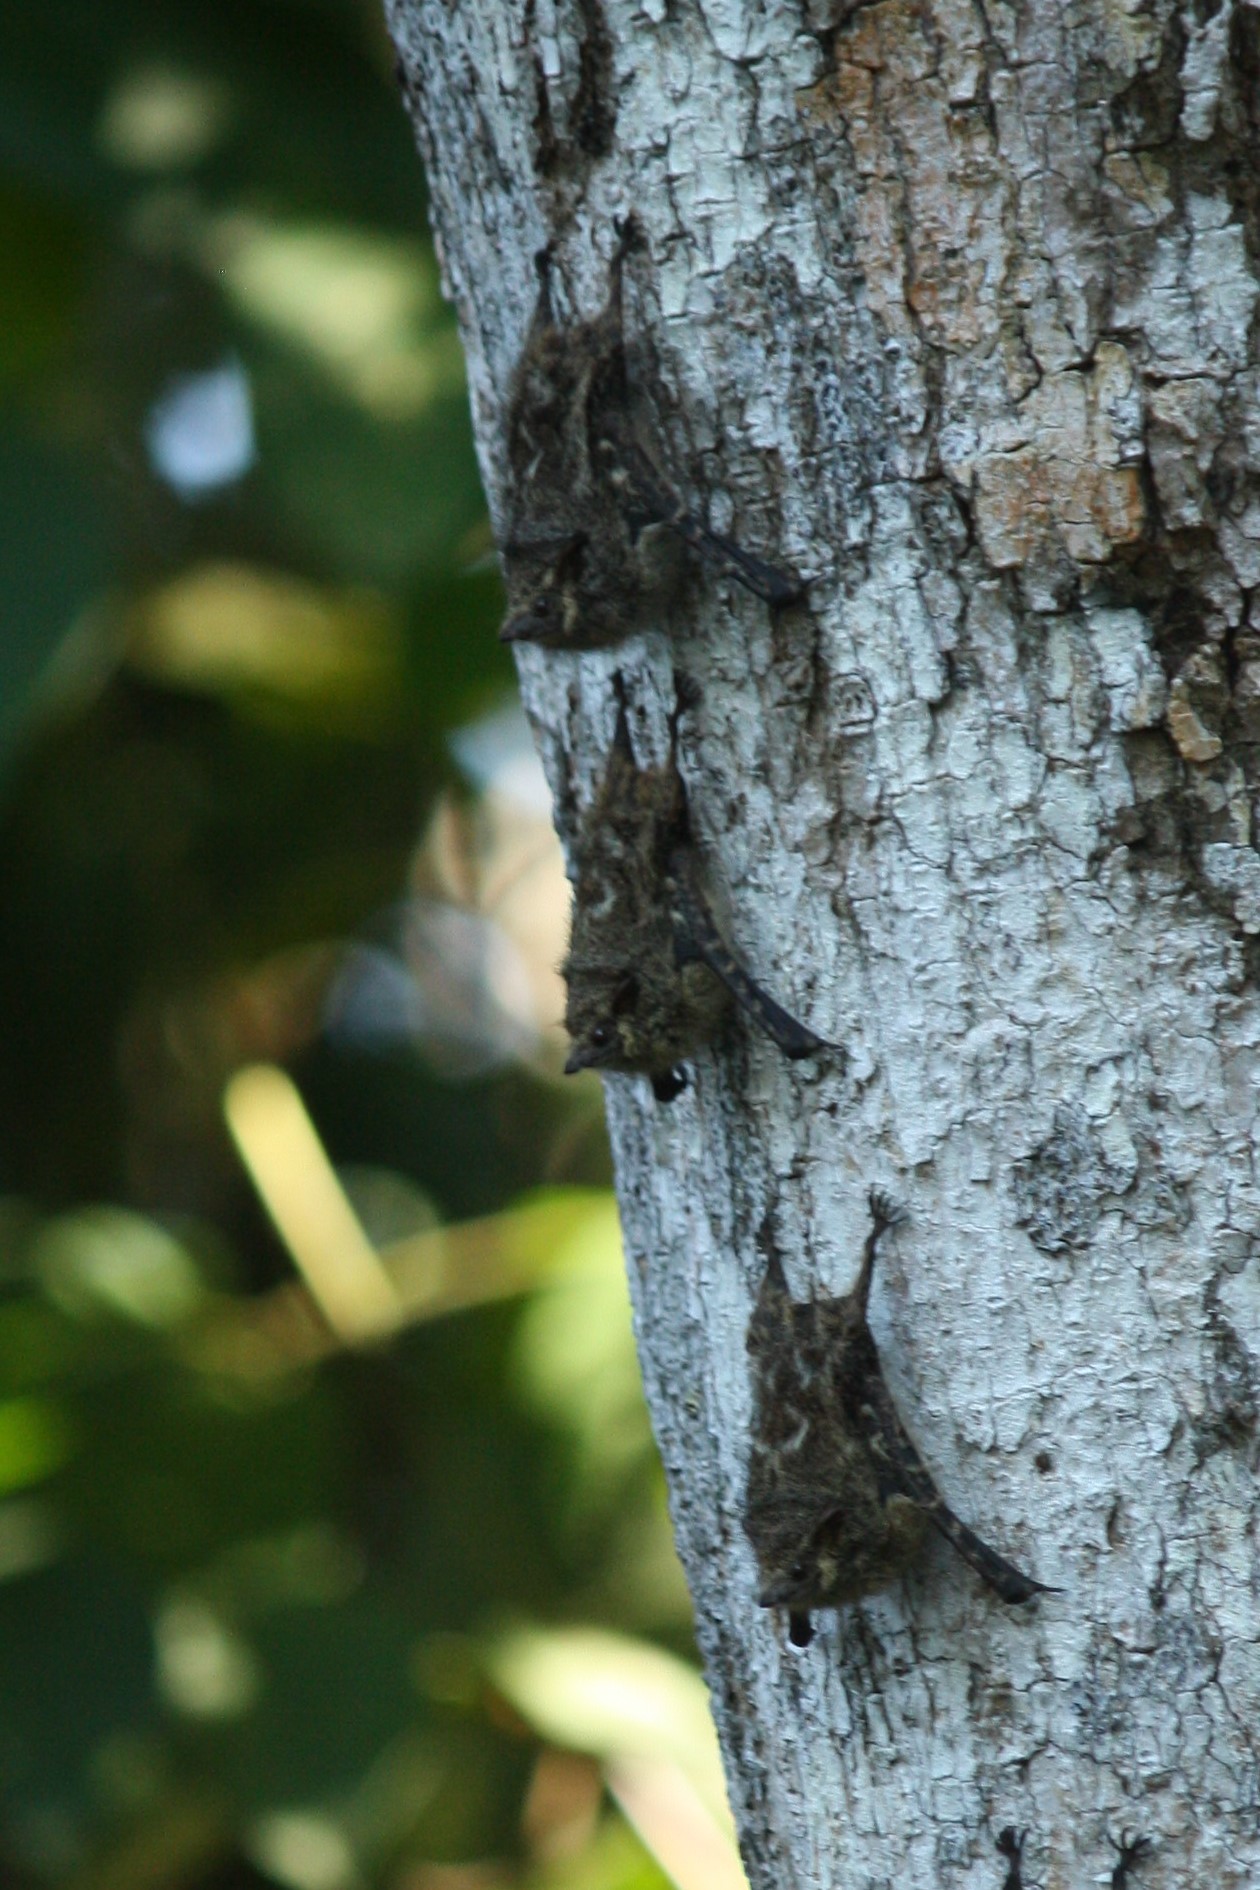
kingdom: Animalia
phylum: Chordata
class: Mammalia
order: Chiroptera
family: Emballonuridae
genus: Rhynchonycteris
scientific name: Rhynchonycteris naso
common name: Proboscis bat
